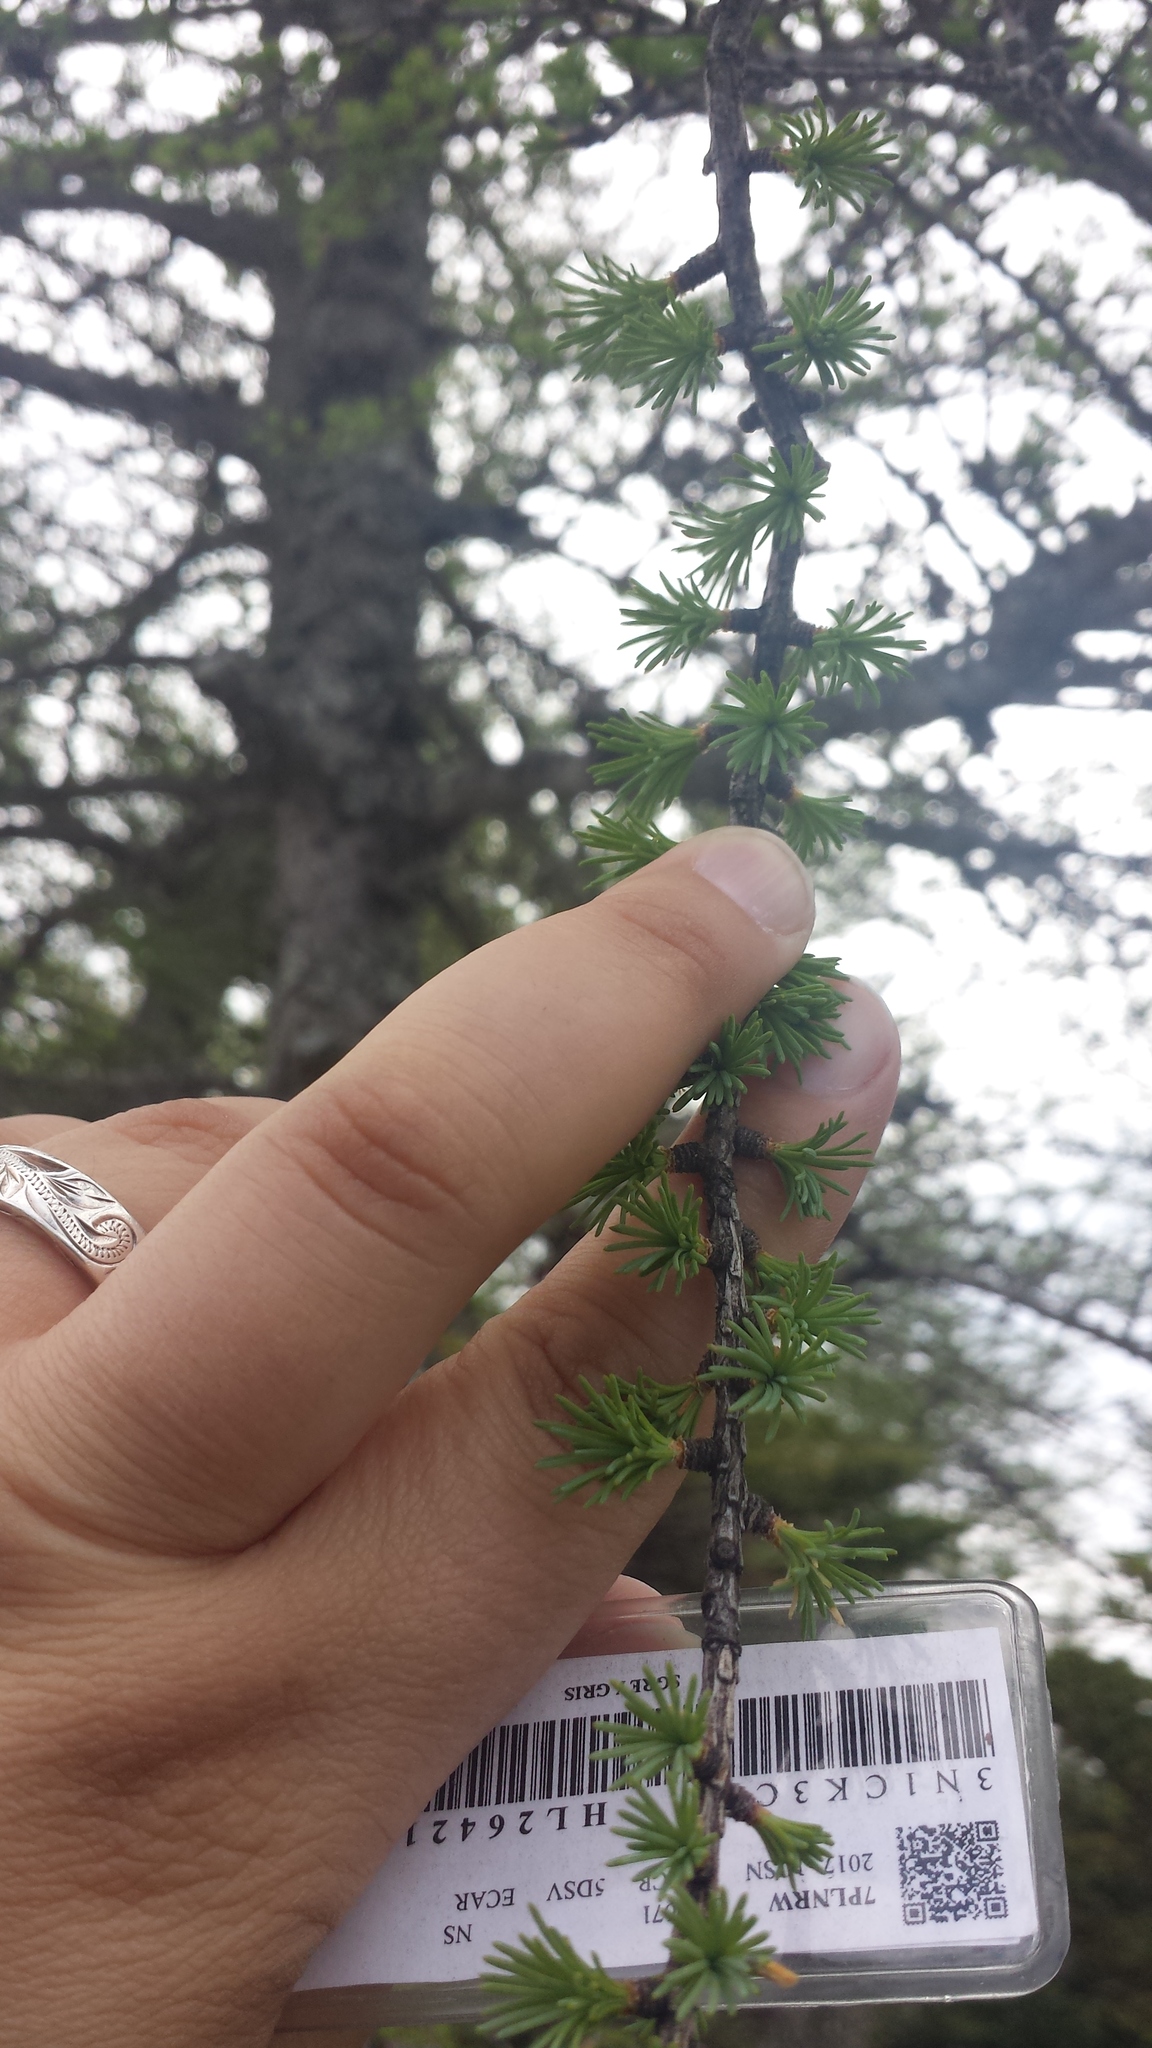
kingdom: Plantae
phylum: Tracheophyta
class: Pinopsida
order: Pinales
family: Pinaceae
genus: Larix
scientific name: Larix laricina
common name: American larch
